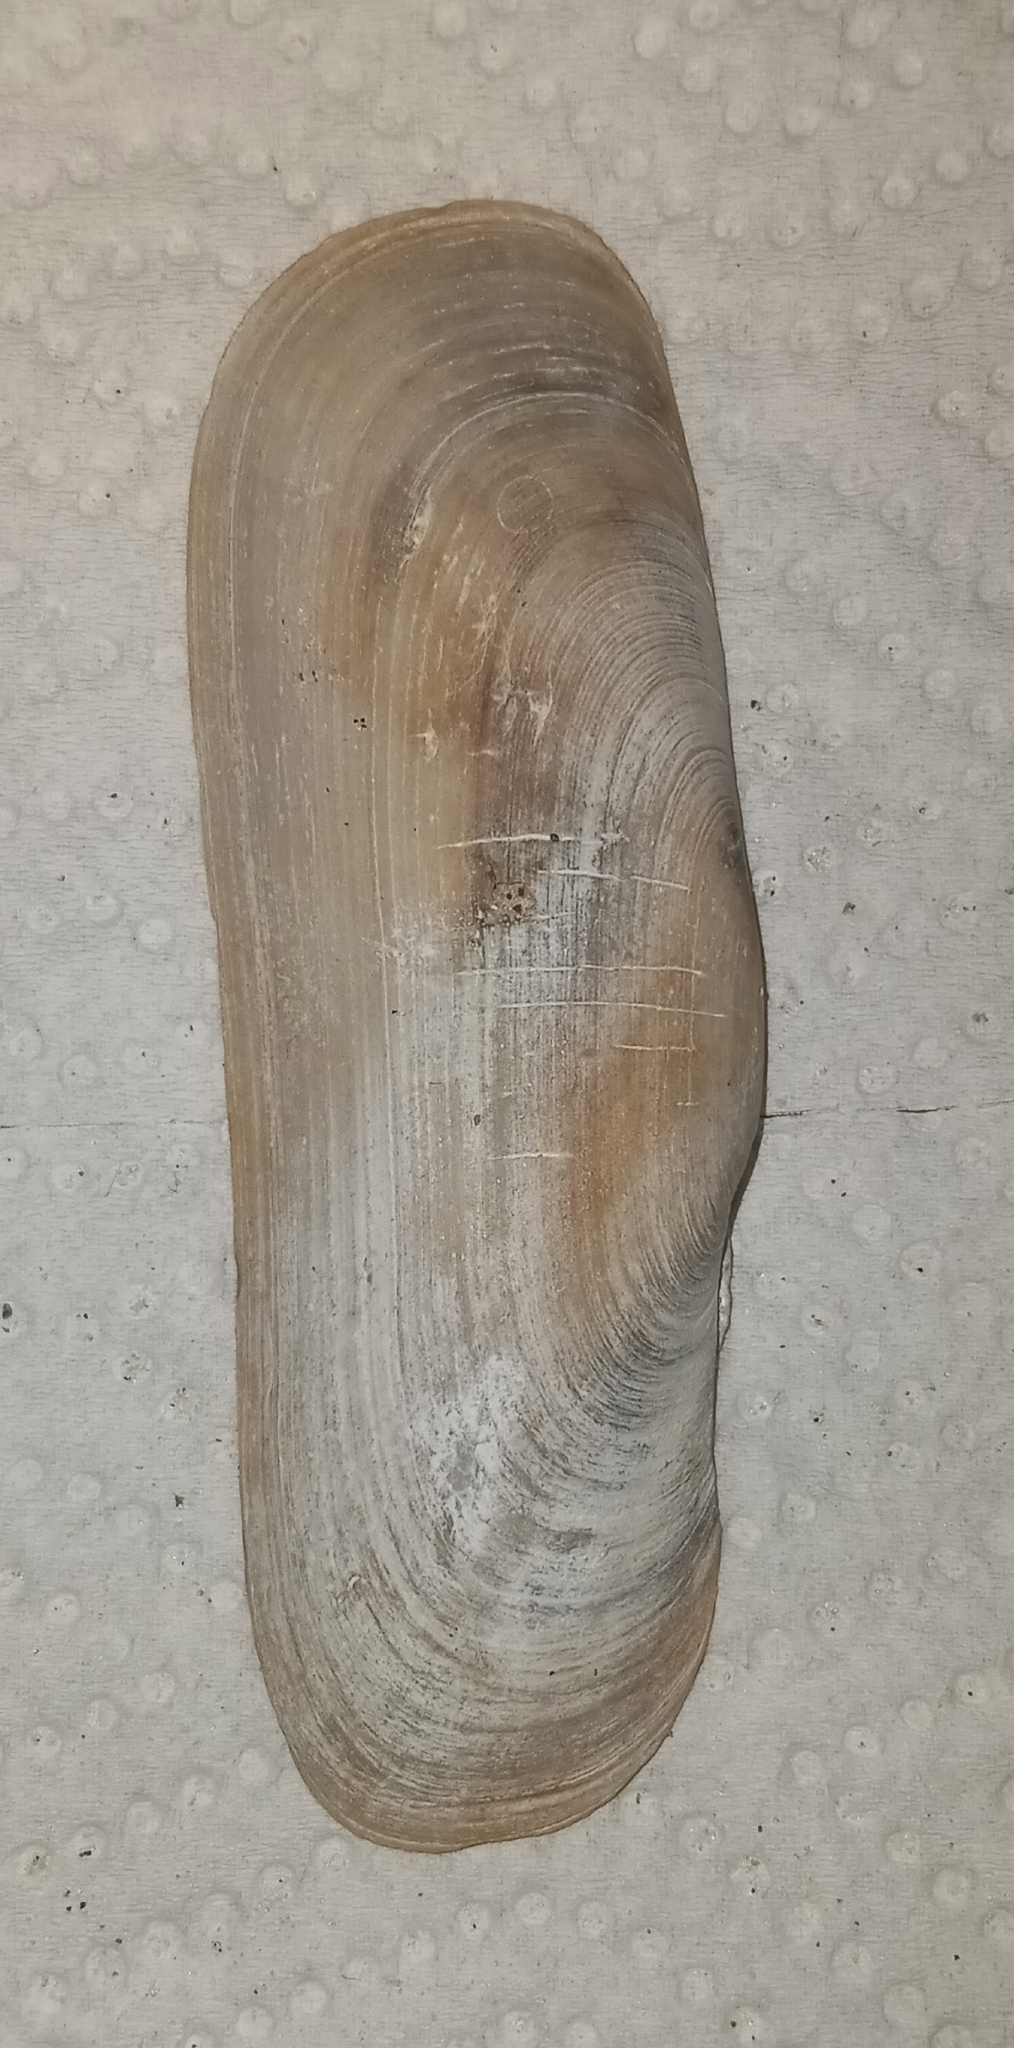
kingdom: Animalia
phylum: Mollusca
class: Bivalvia
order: Cardiida
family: Solecurtidae
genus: Tagelus
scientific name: Tagelus plebeius
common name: Stout tagelus
